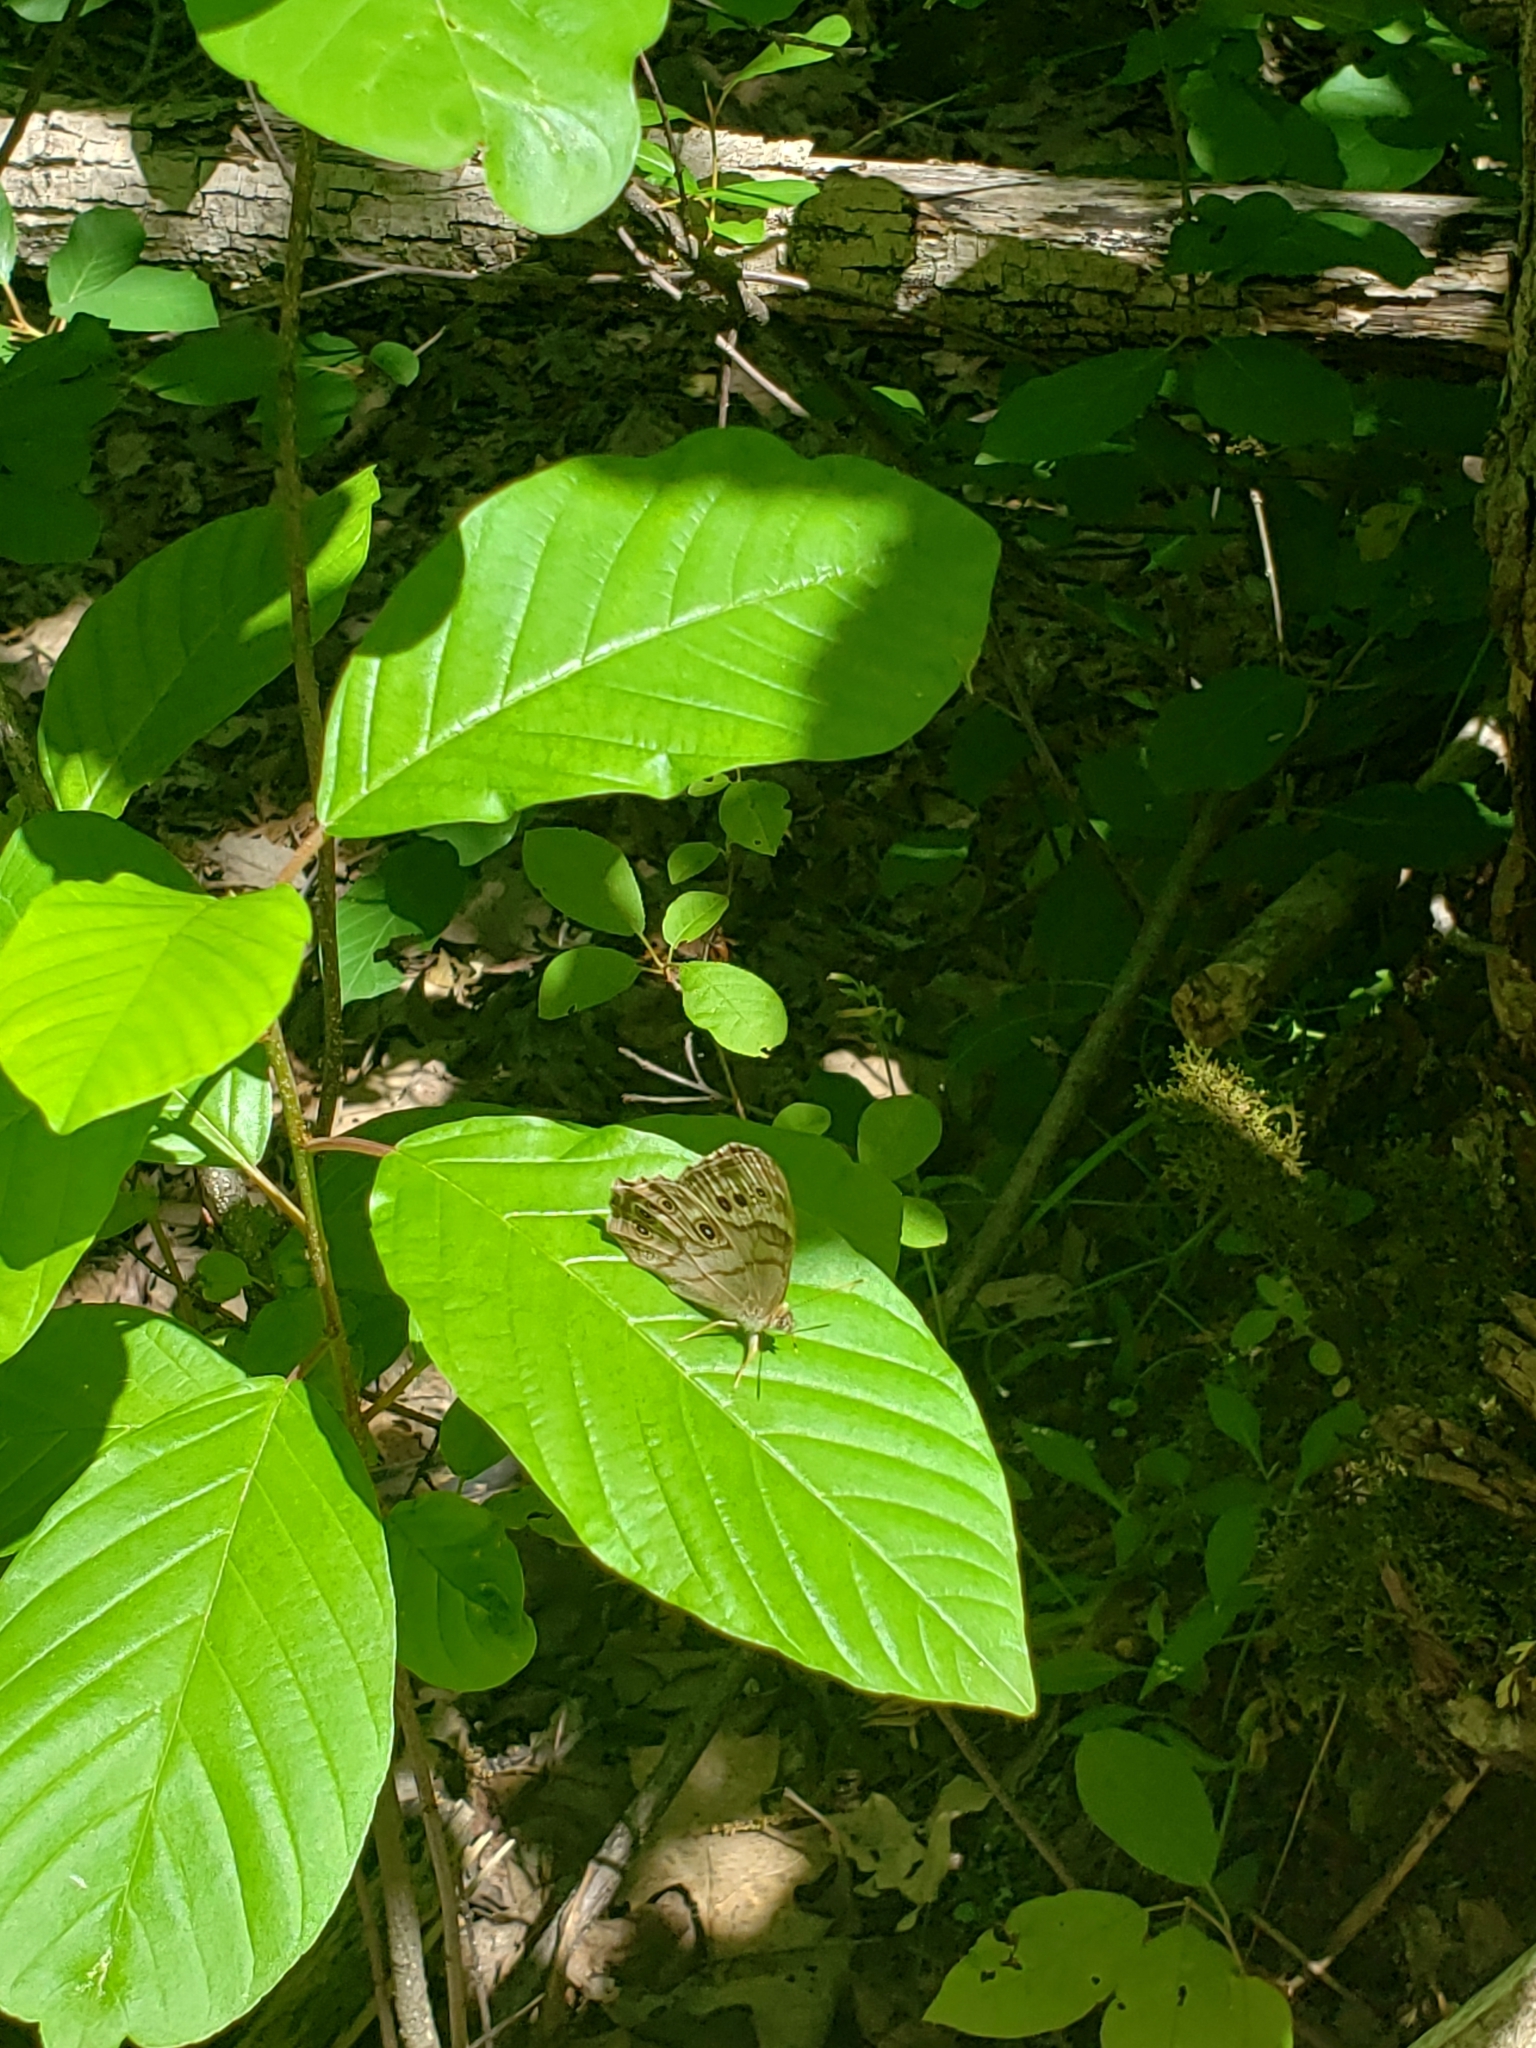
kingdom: Animalia
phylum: Arthropoda
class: Insecta
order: Lepidoptera
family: Nymphalidae
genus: Lethe
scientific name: Lethe anthedon
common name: Northern pearly-eye
